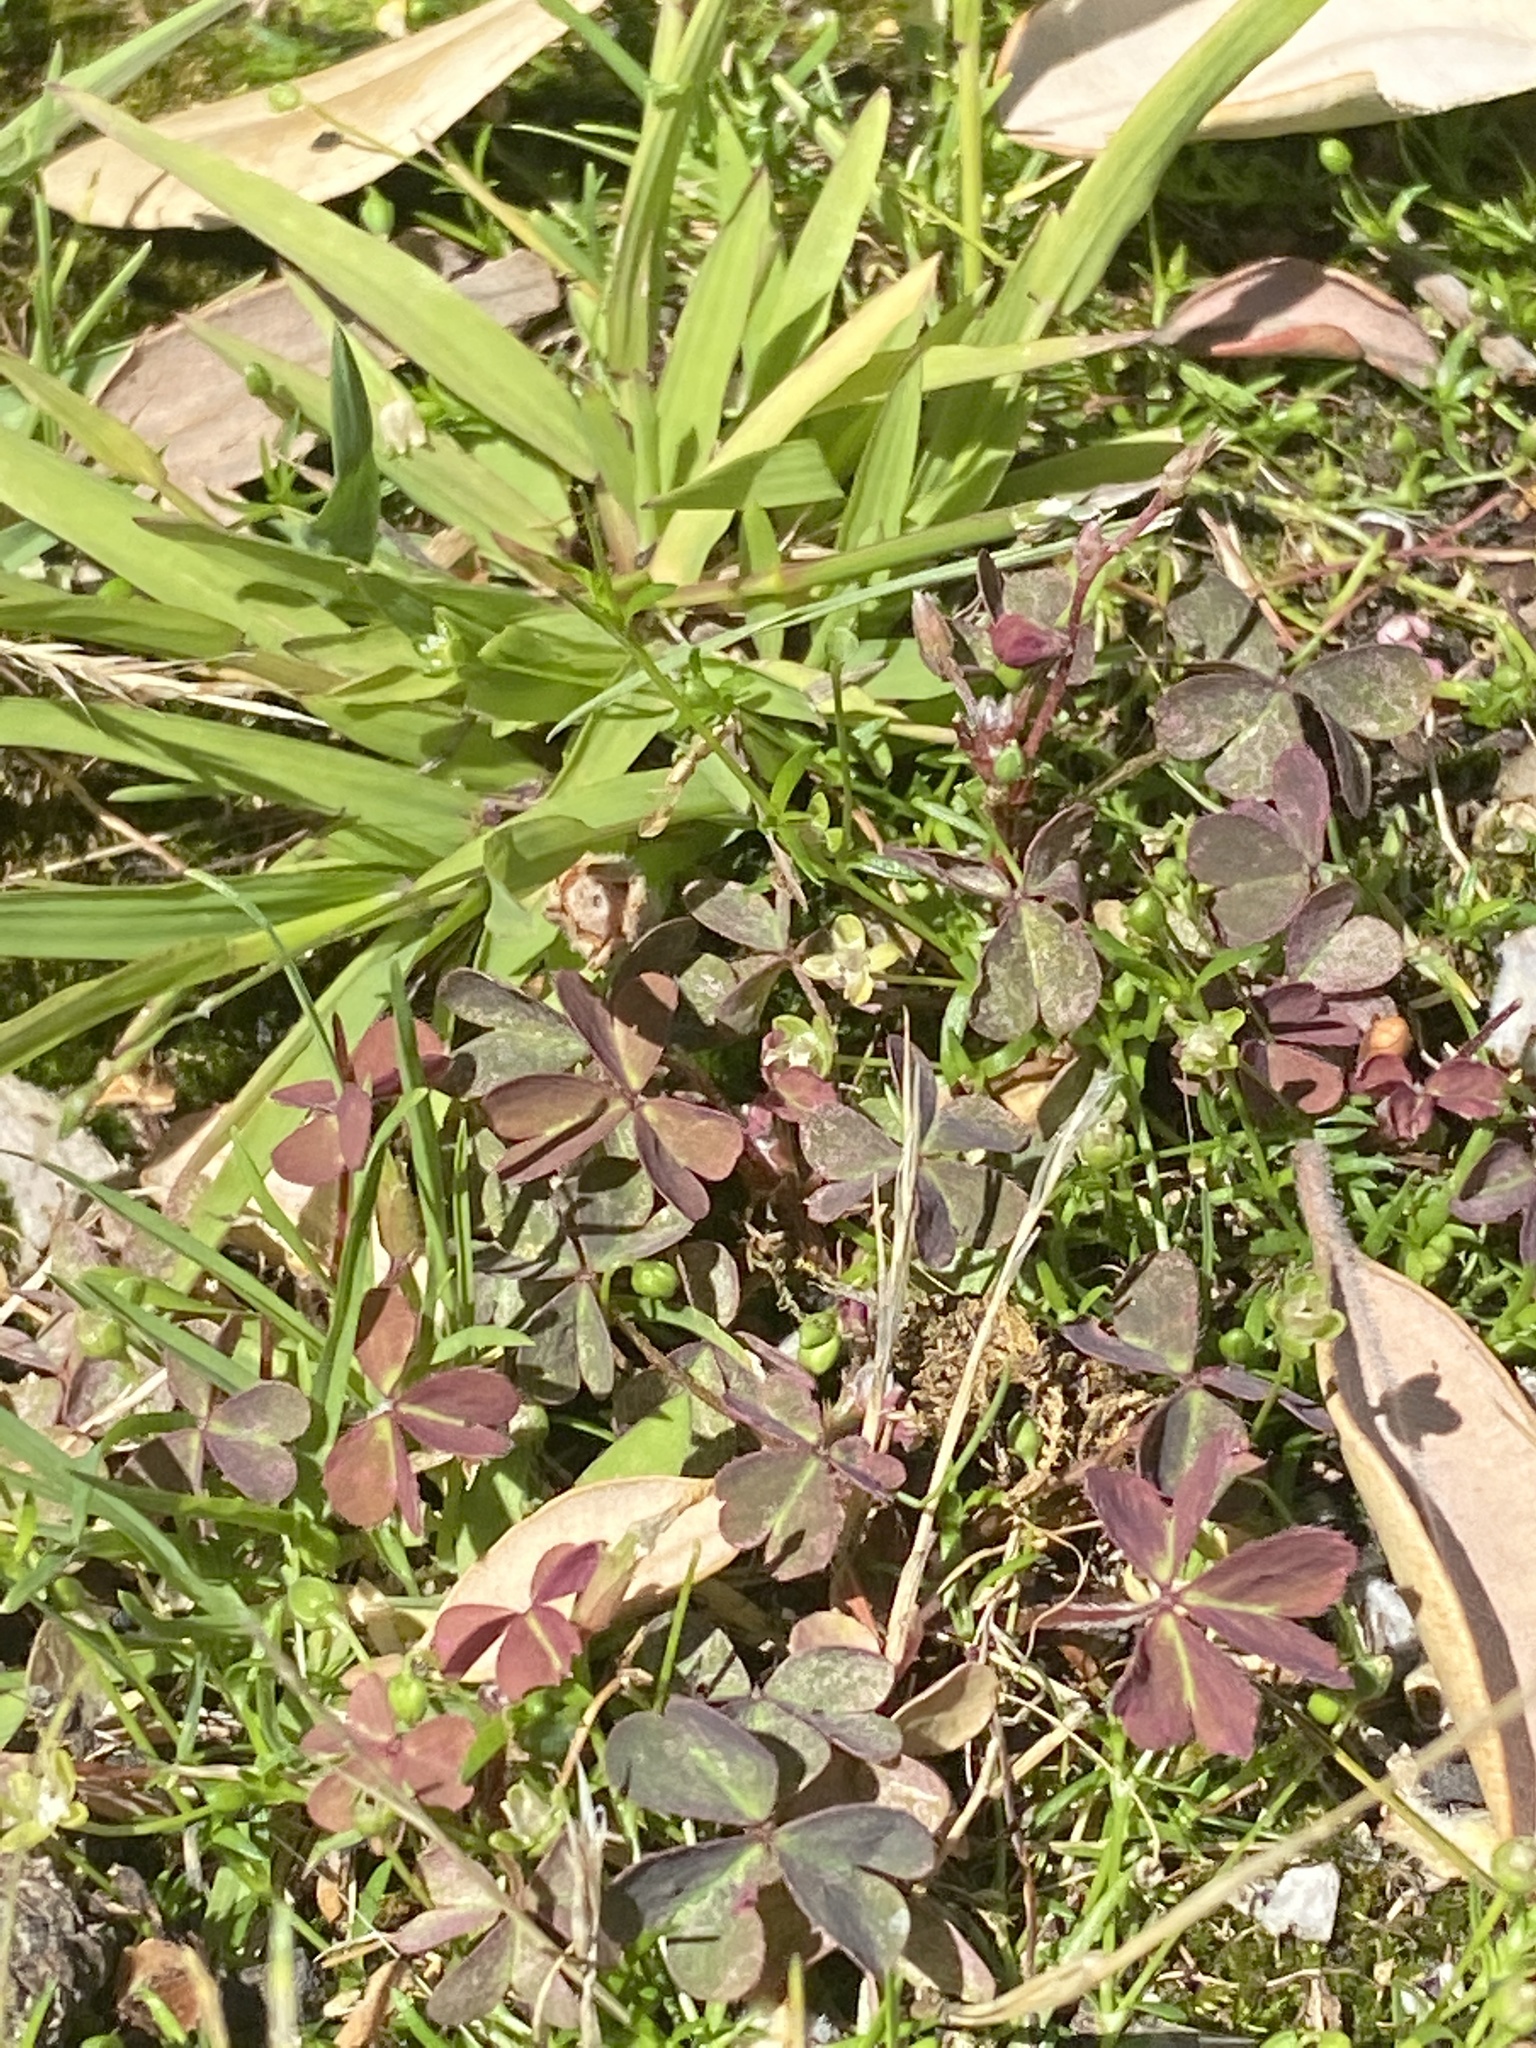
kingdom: Plantae
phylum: Tracheophyta
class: Magnoliopsida
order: Oxalidales
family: Oxalidaceae
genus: Oxalis
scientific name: Oxalis corniculata
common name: Procumbent yellow-sorrel
